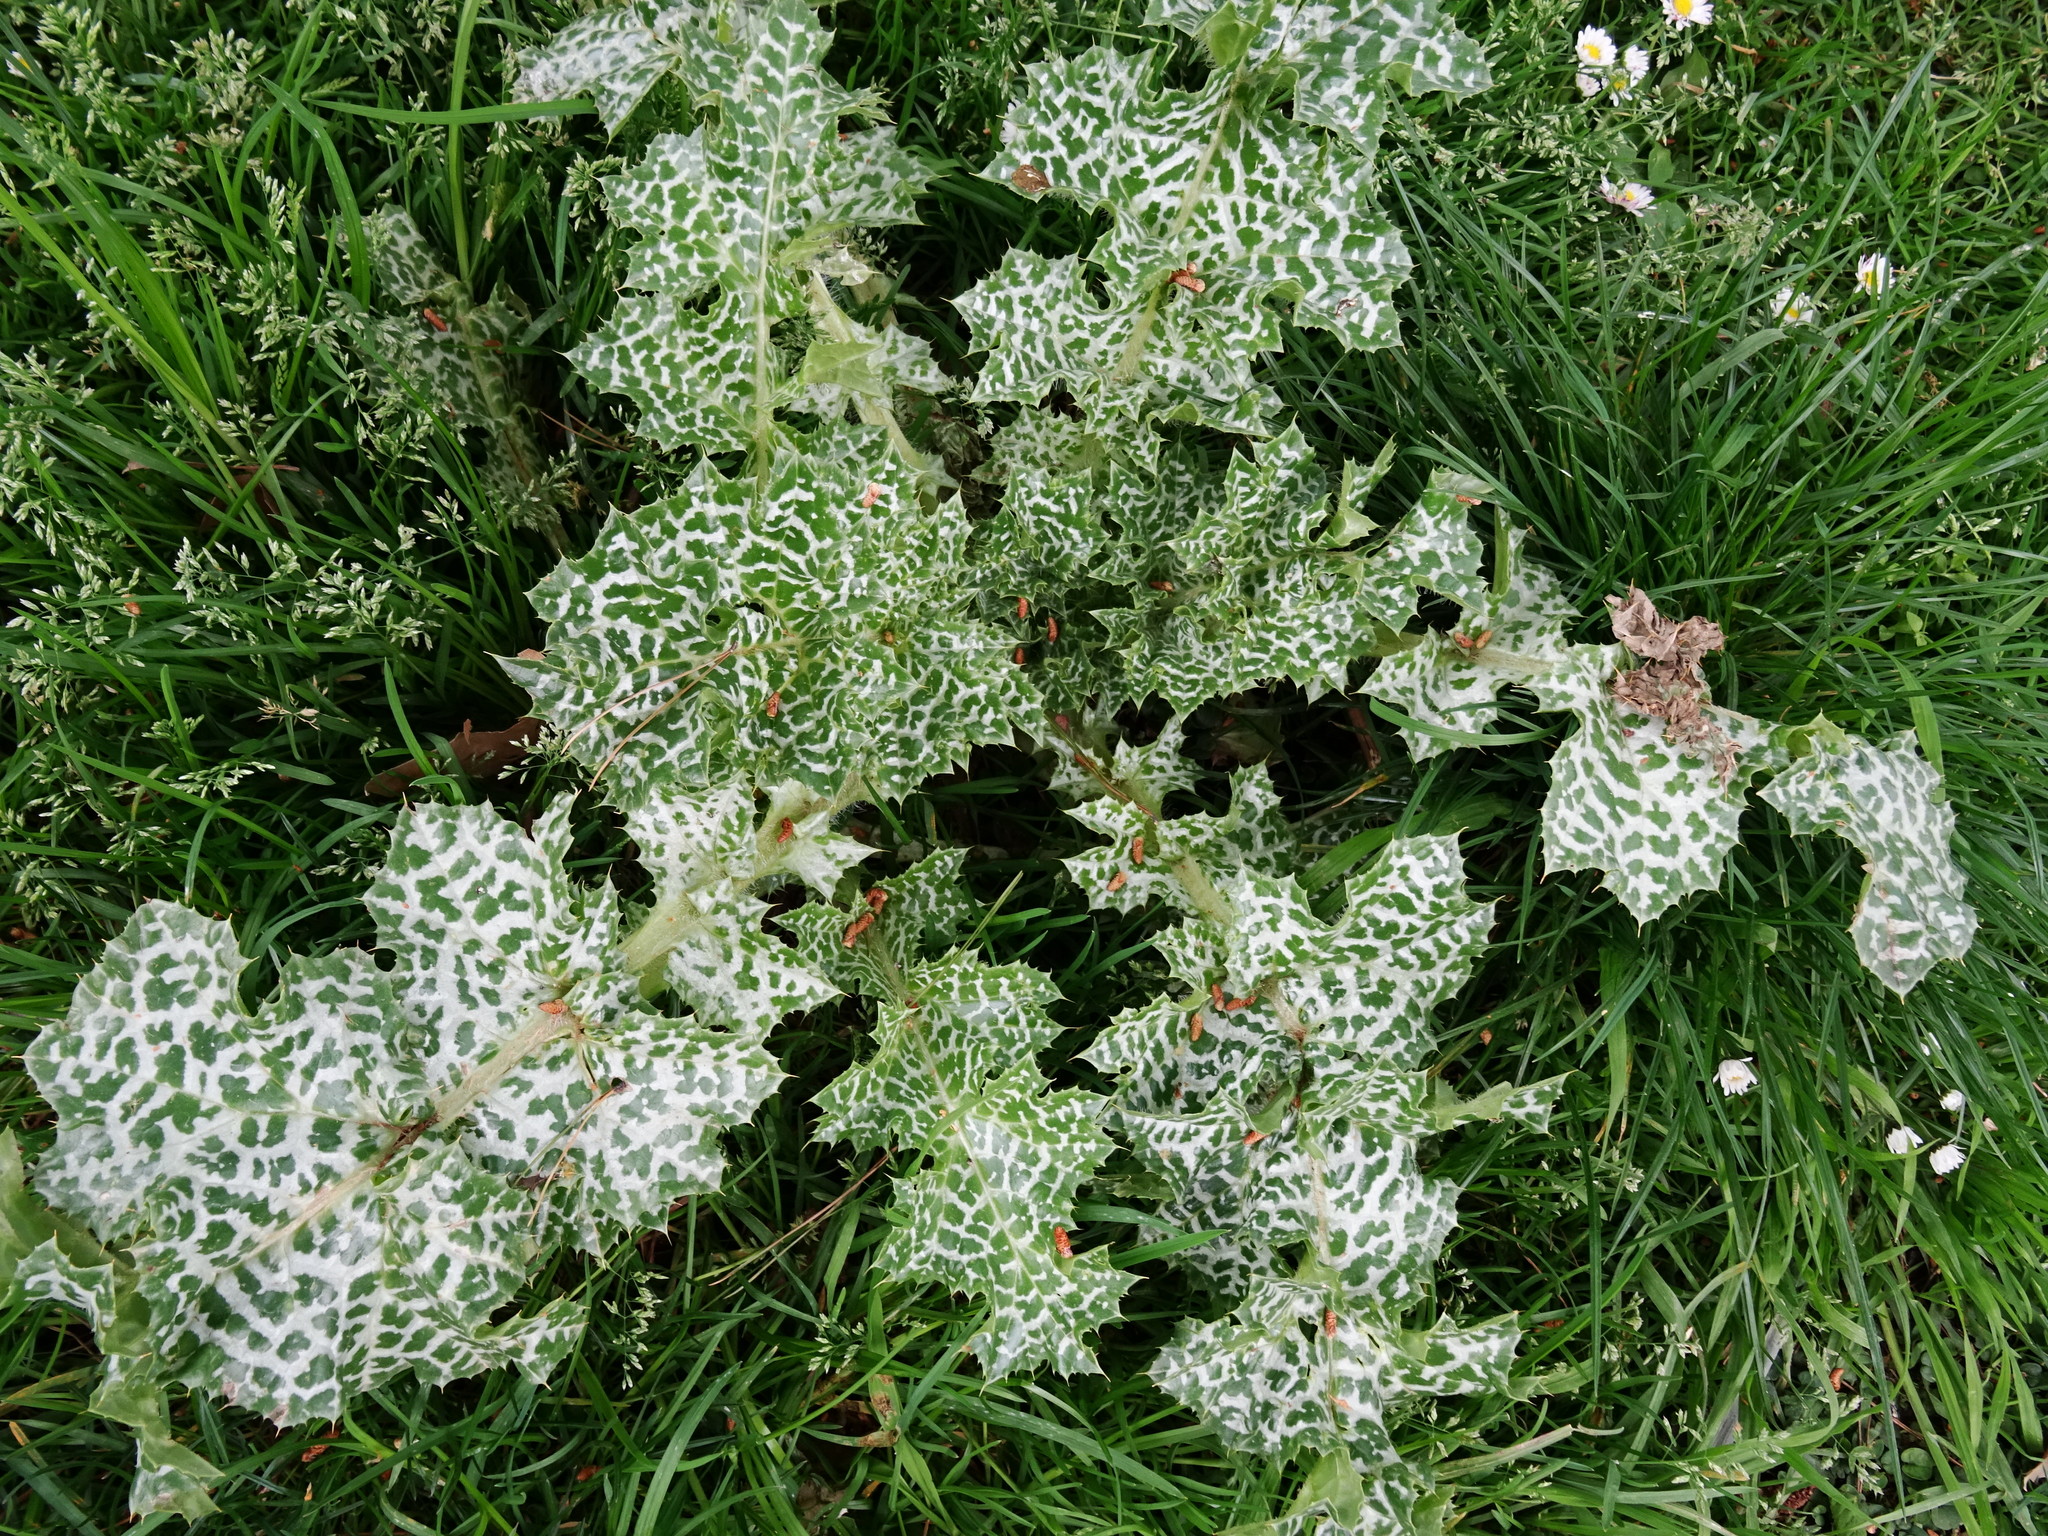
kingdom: Plantae
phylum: Tracheophyta
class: Magnoliopsida
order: Asterales
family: Asteraceae
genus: Silybum
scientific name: Silybum marianum
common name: Milk thistle
